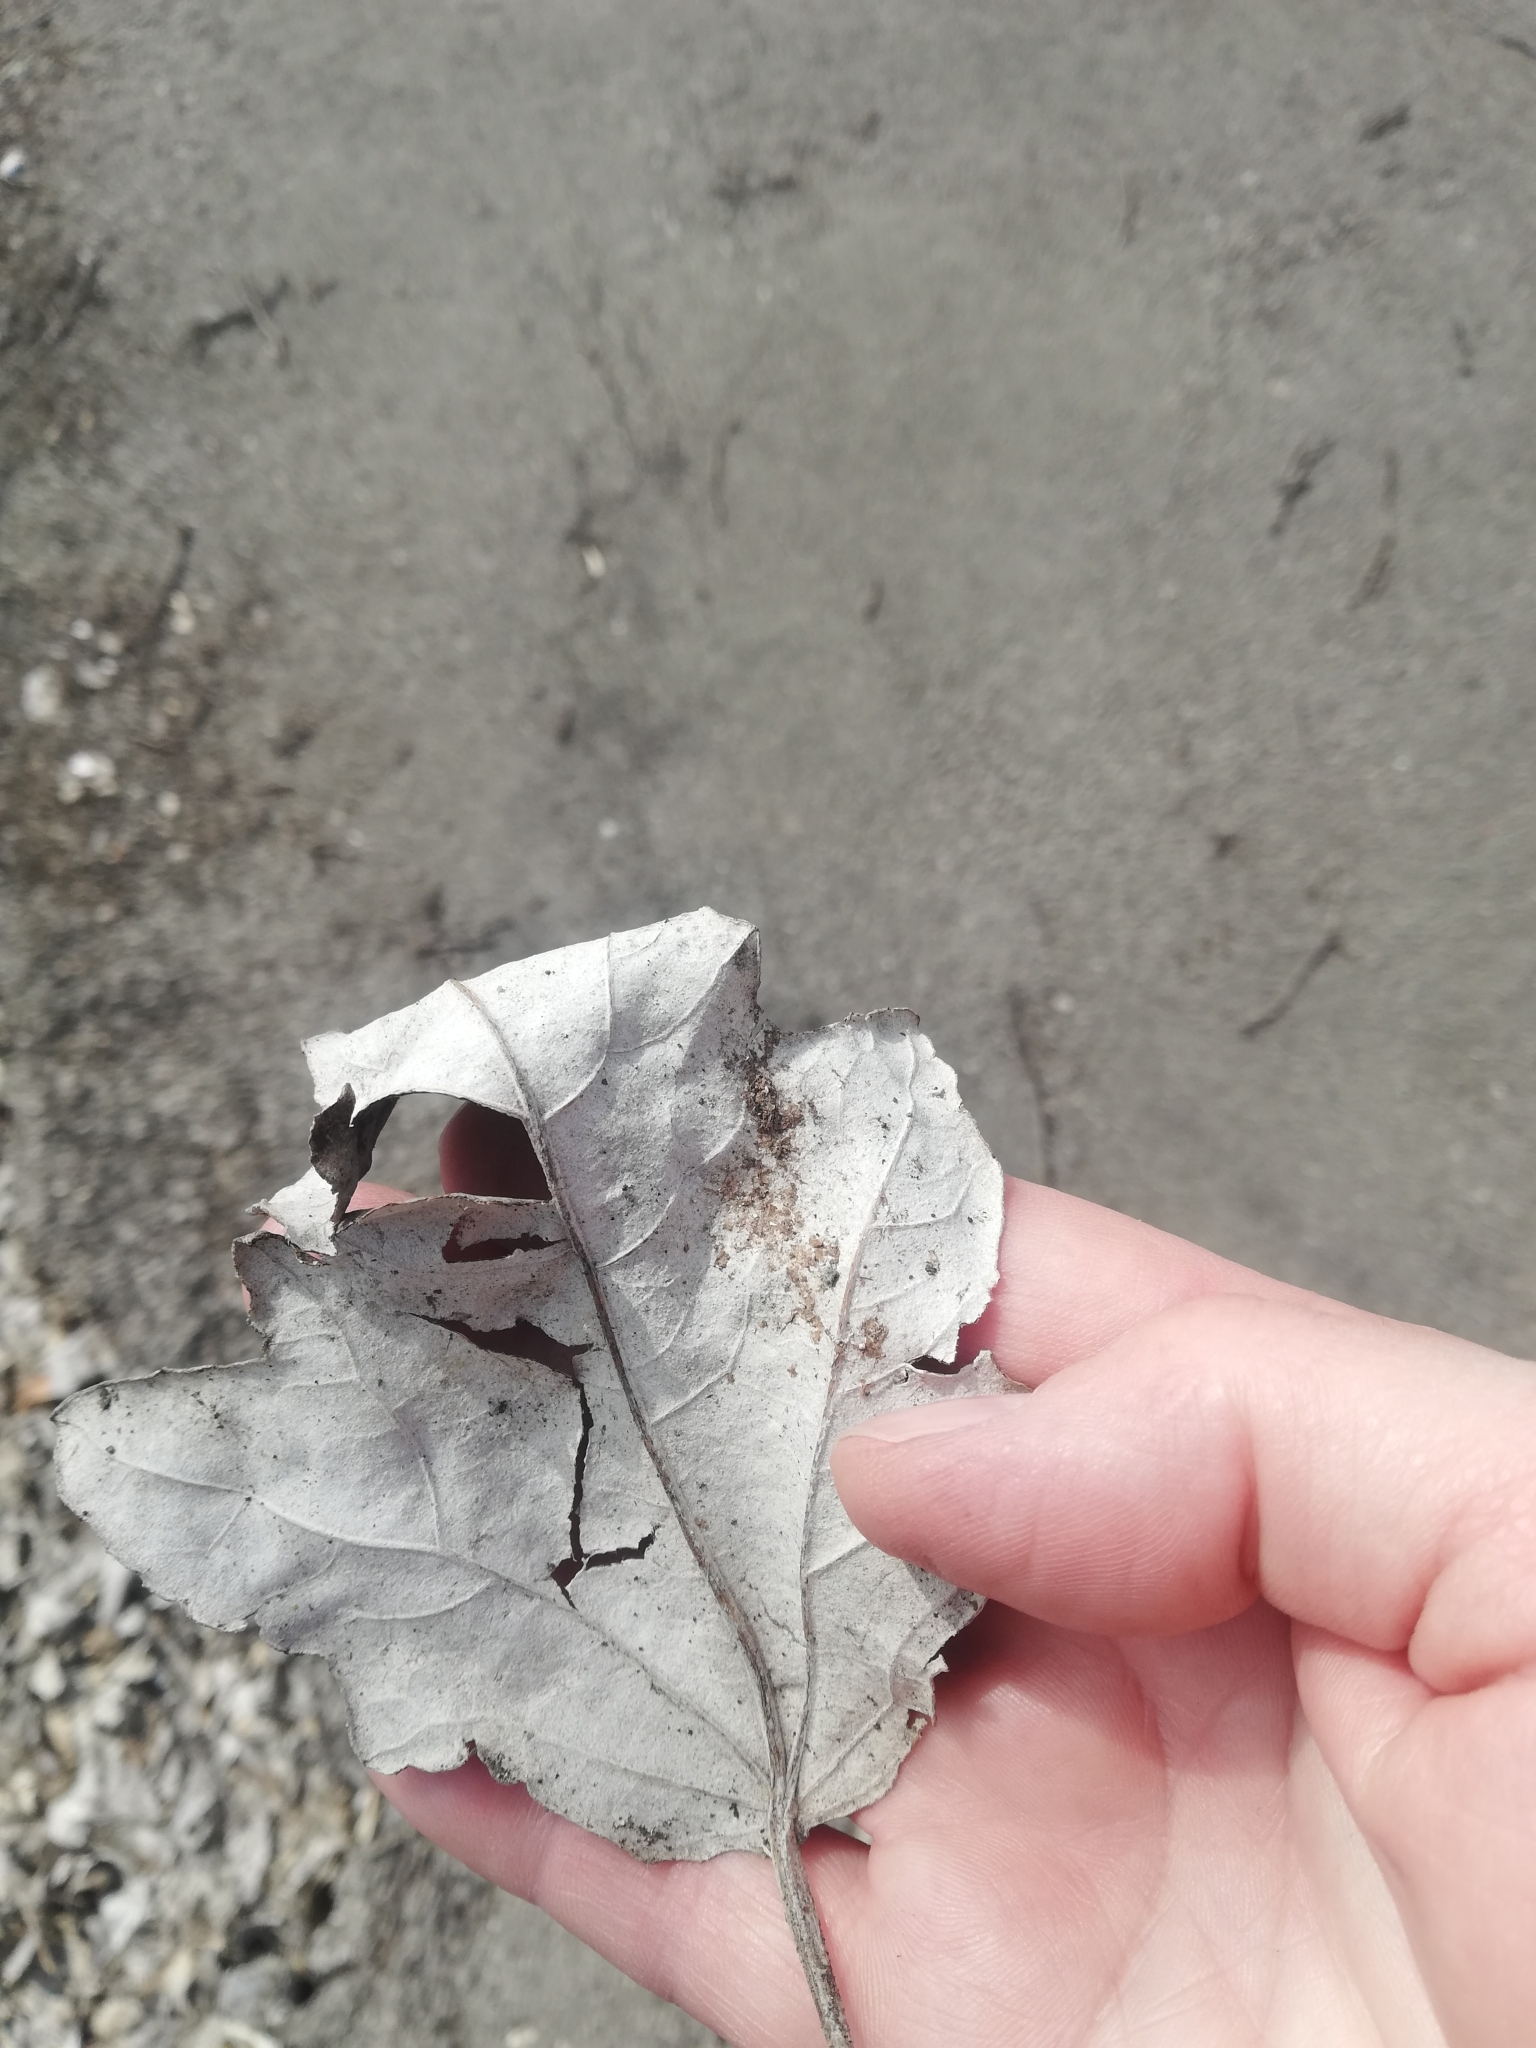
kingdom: Plantae
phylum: Tracheophyta
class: Magnoliopsida
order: Malpighiales
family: Salicaceae
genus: Populus
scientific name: Populus alba
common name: White poplar
